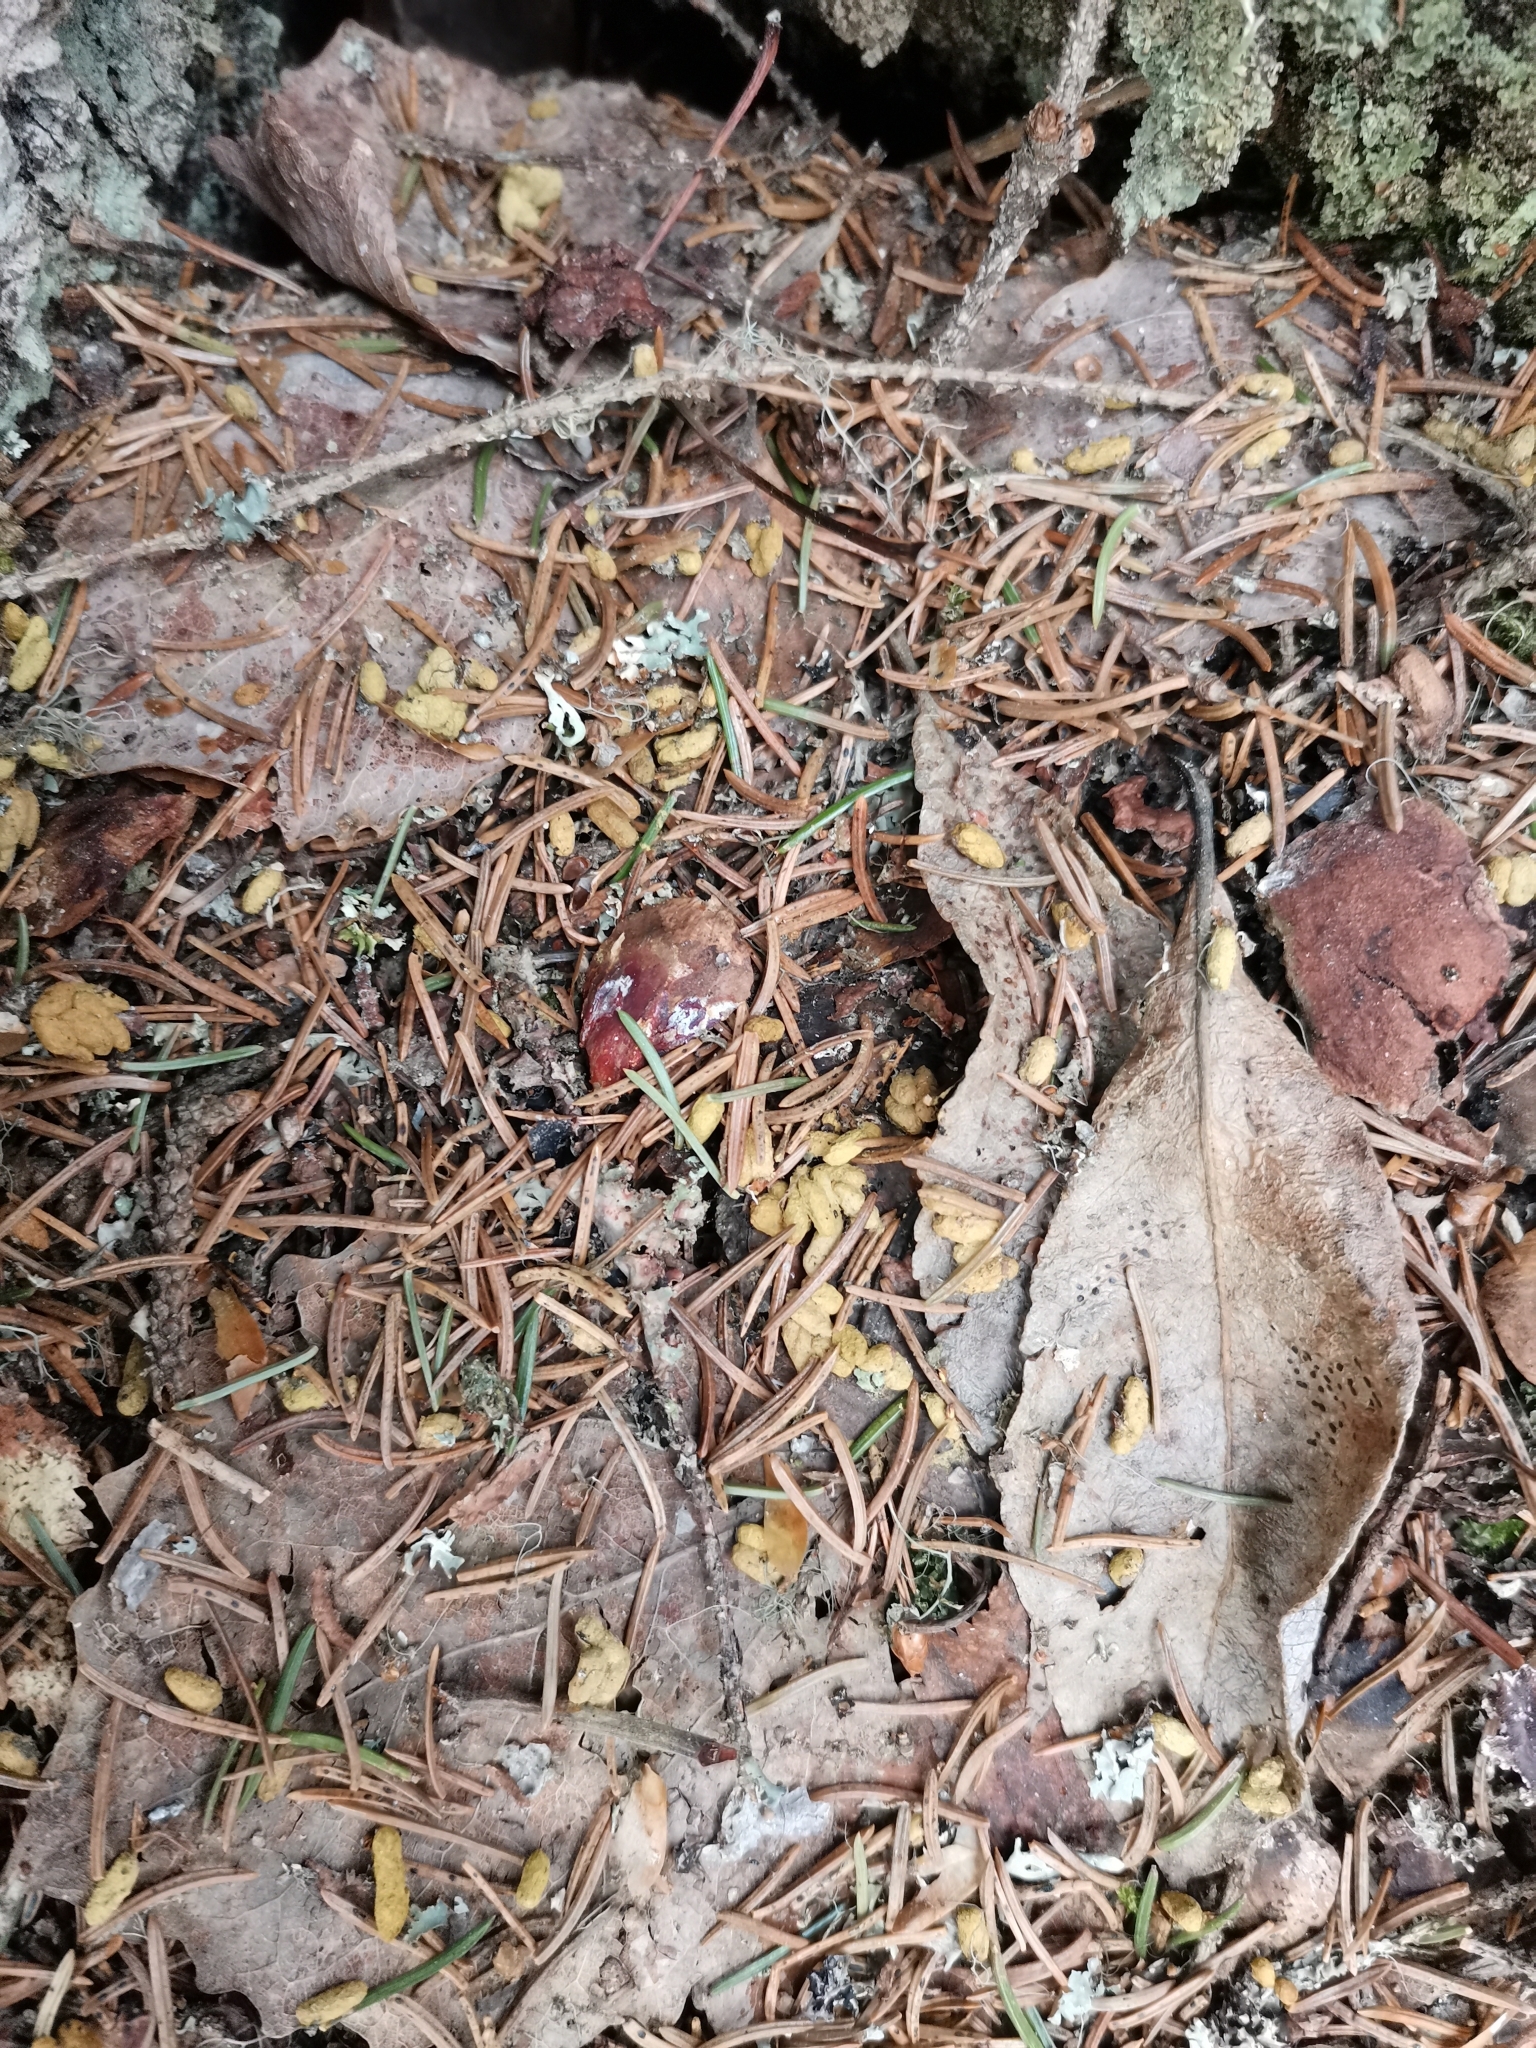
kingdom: Animalia
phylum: Chordata
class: Mammalia
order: Rodentia
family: Sciuridae
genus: Pteromys
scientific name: Pteromys volans
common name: Siberian flying squirrel
